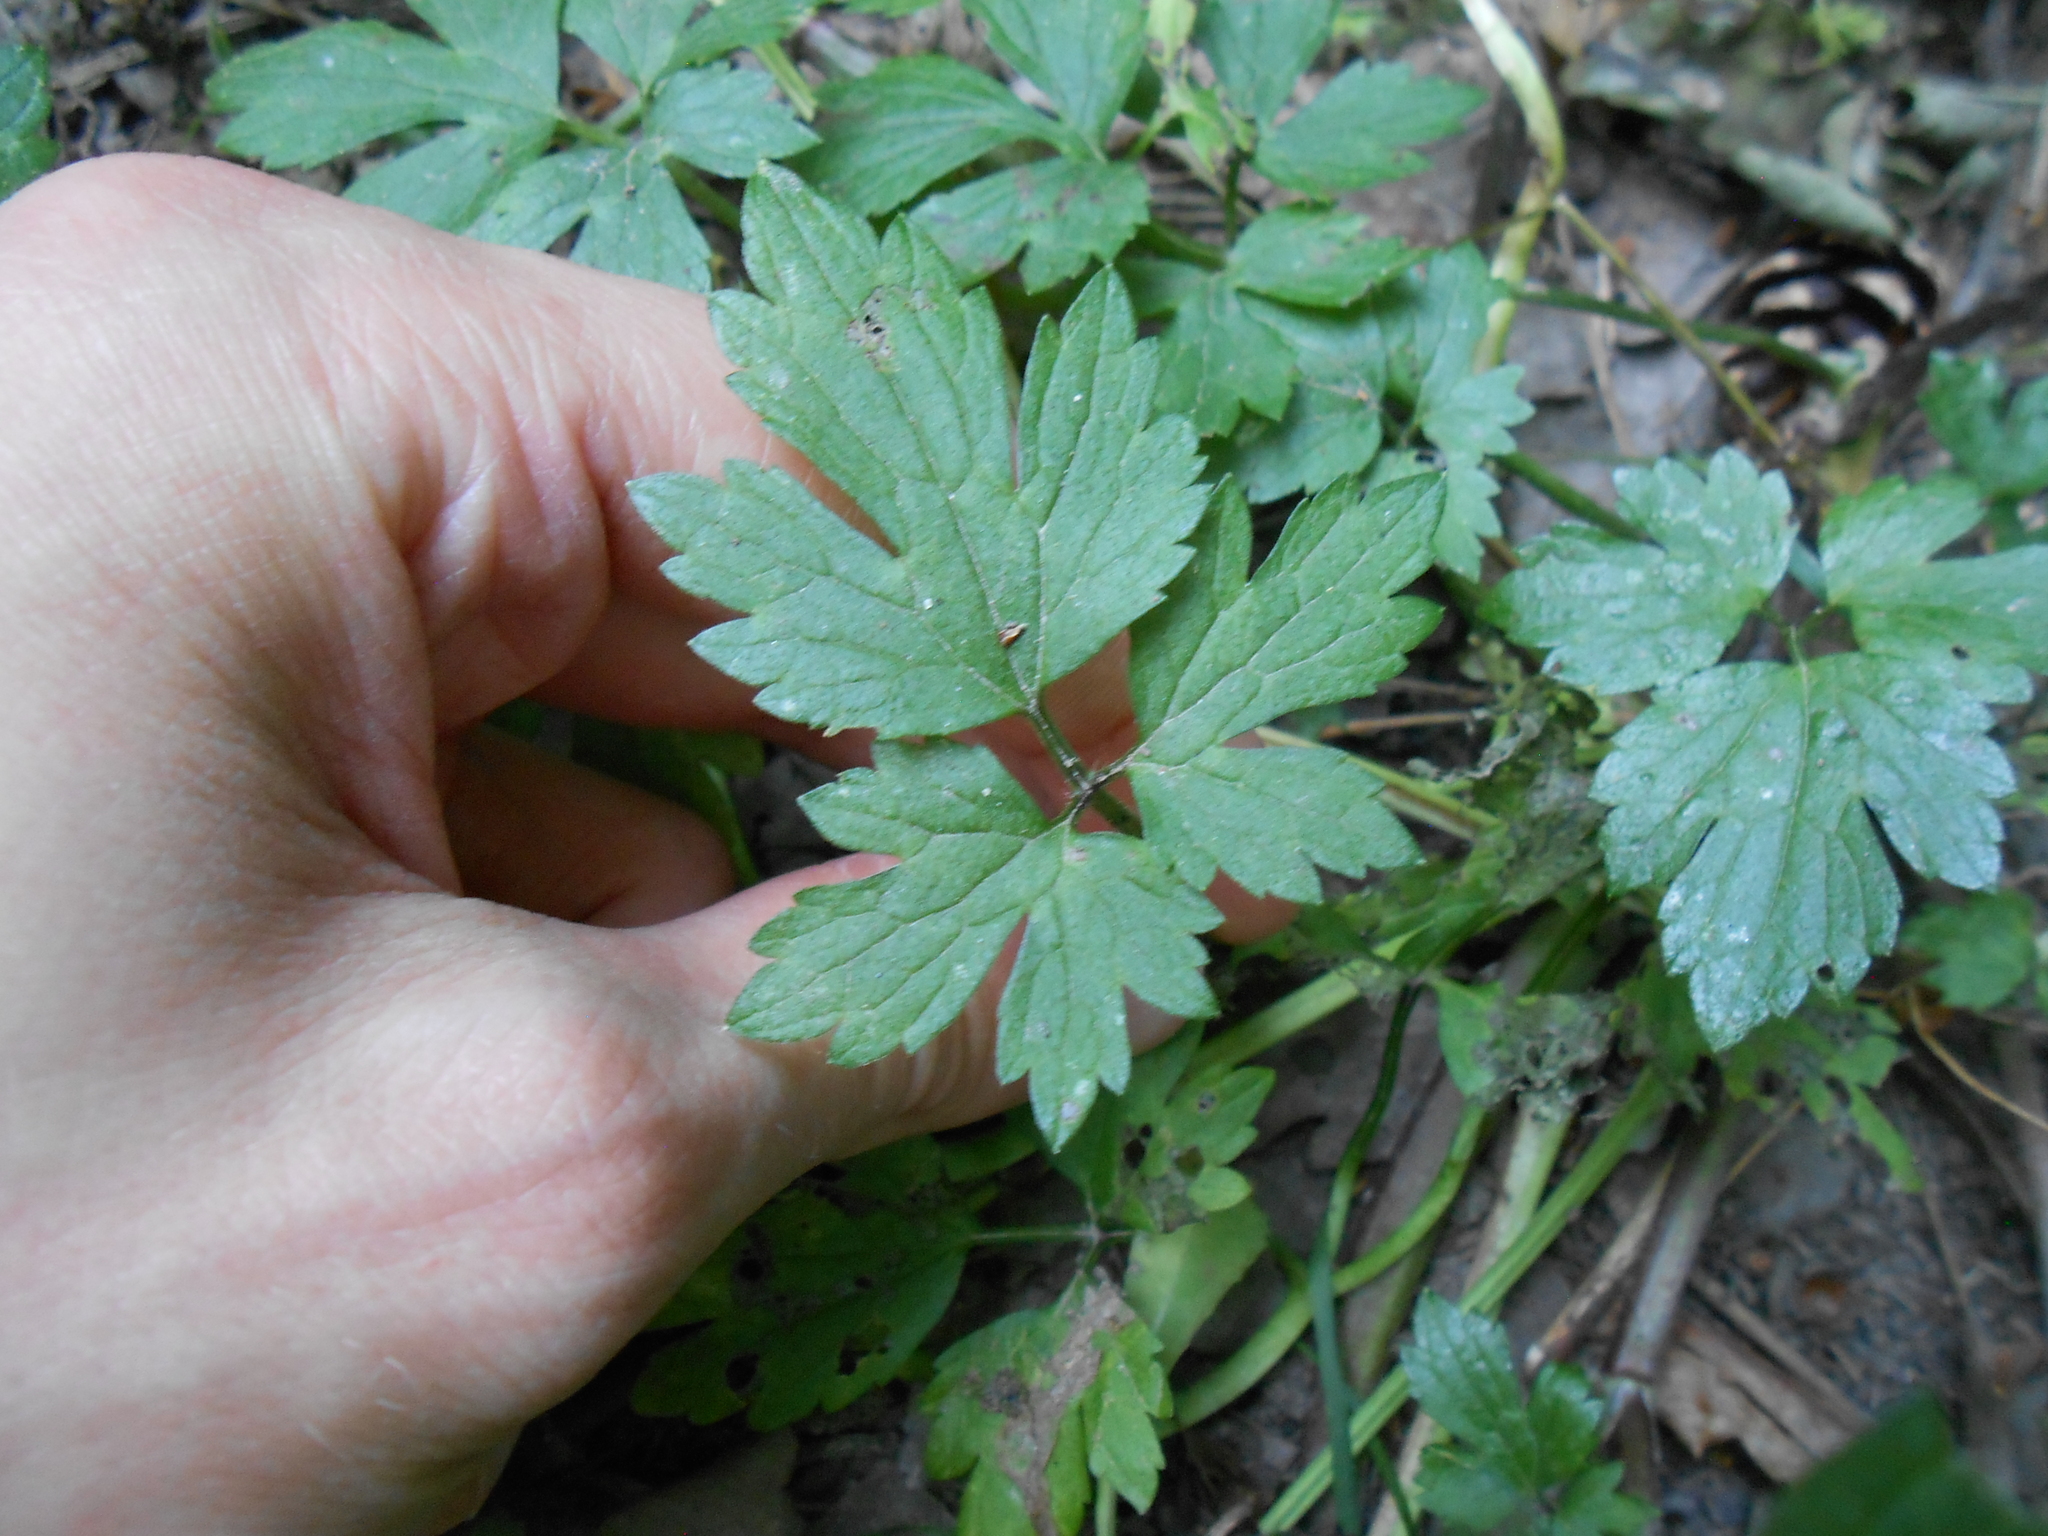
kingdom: Plantae
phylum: Tracheophyta
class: Magnoliopsida
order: Ranunculales
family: Ranunculaceae
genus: Ranunculus
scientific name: Ranunculus repens
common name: Creeping buttercup
